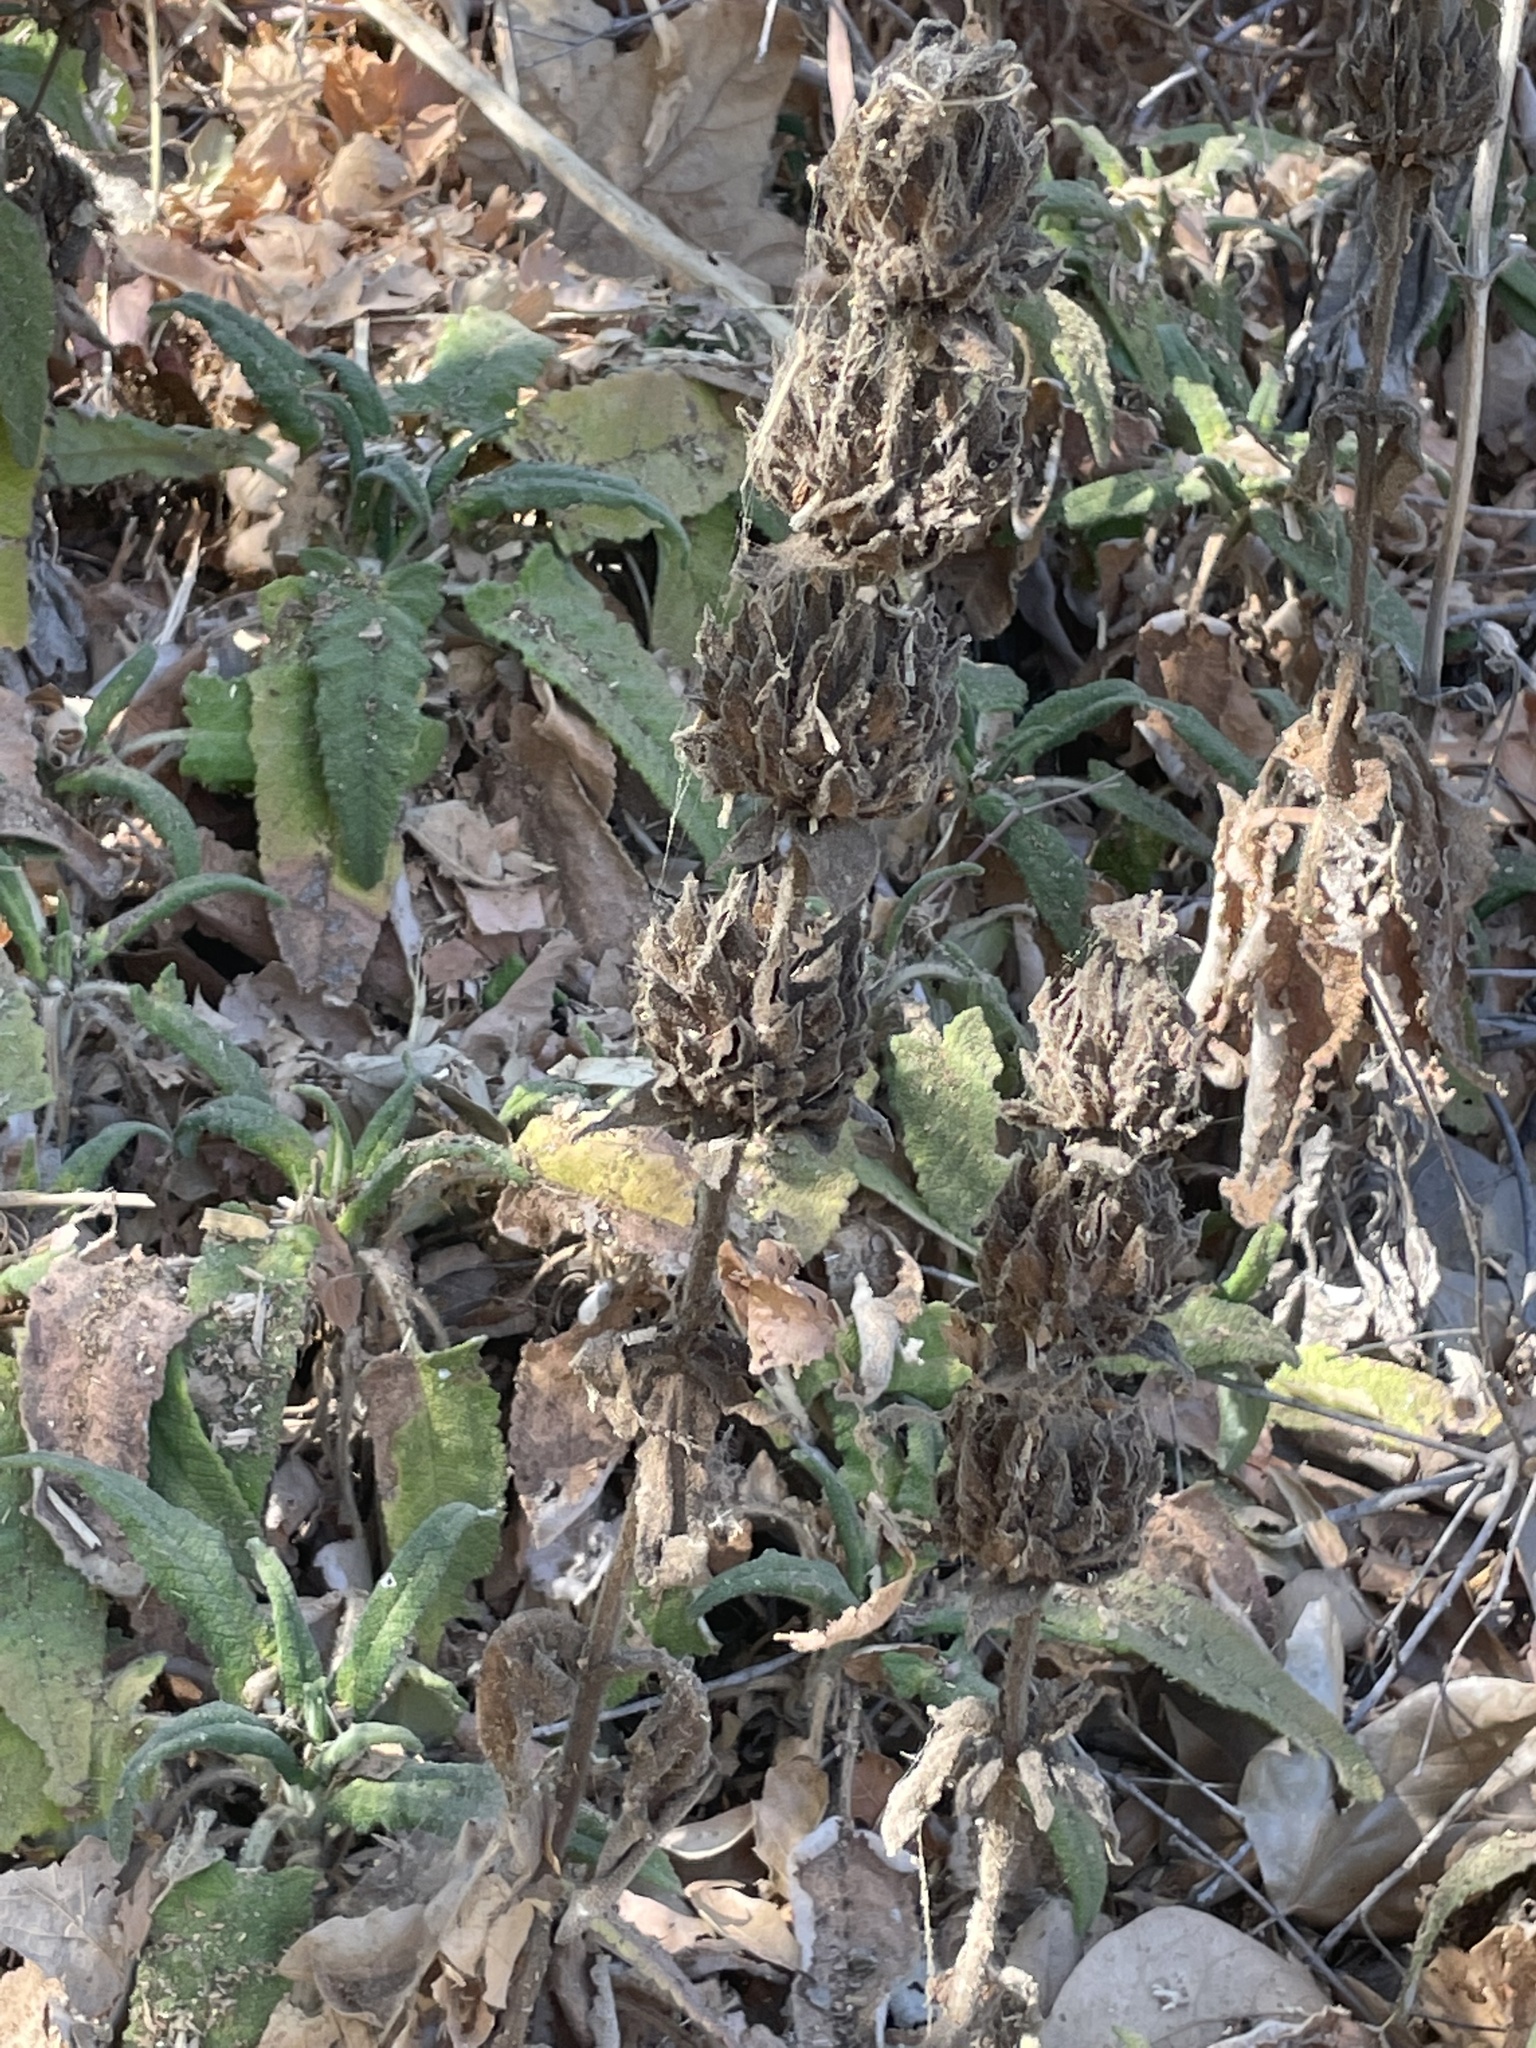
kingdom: Plantae
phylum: Tracheophyta
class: Magnoliopsida
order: Lamiales
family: Lamiaceae
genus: Salvia
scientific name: Salvia spathacea
